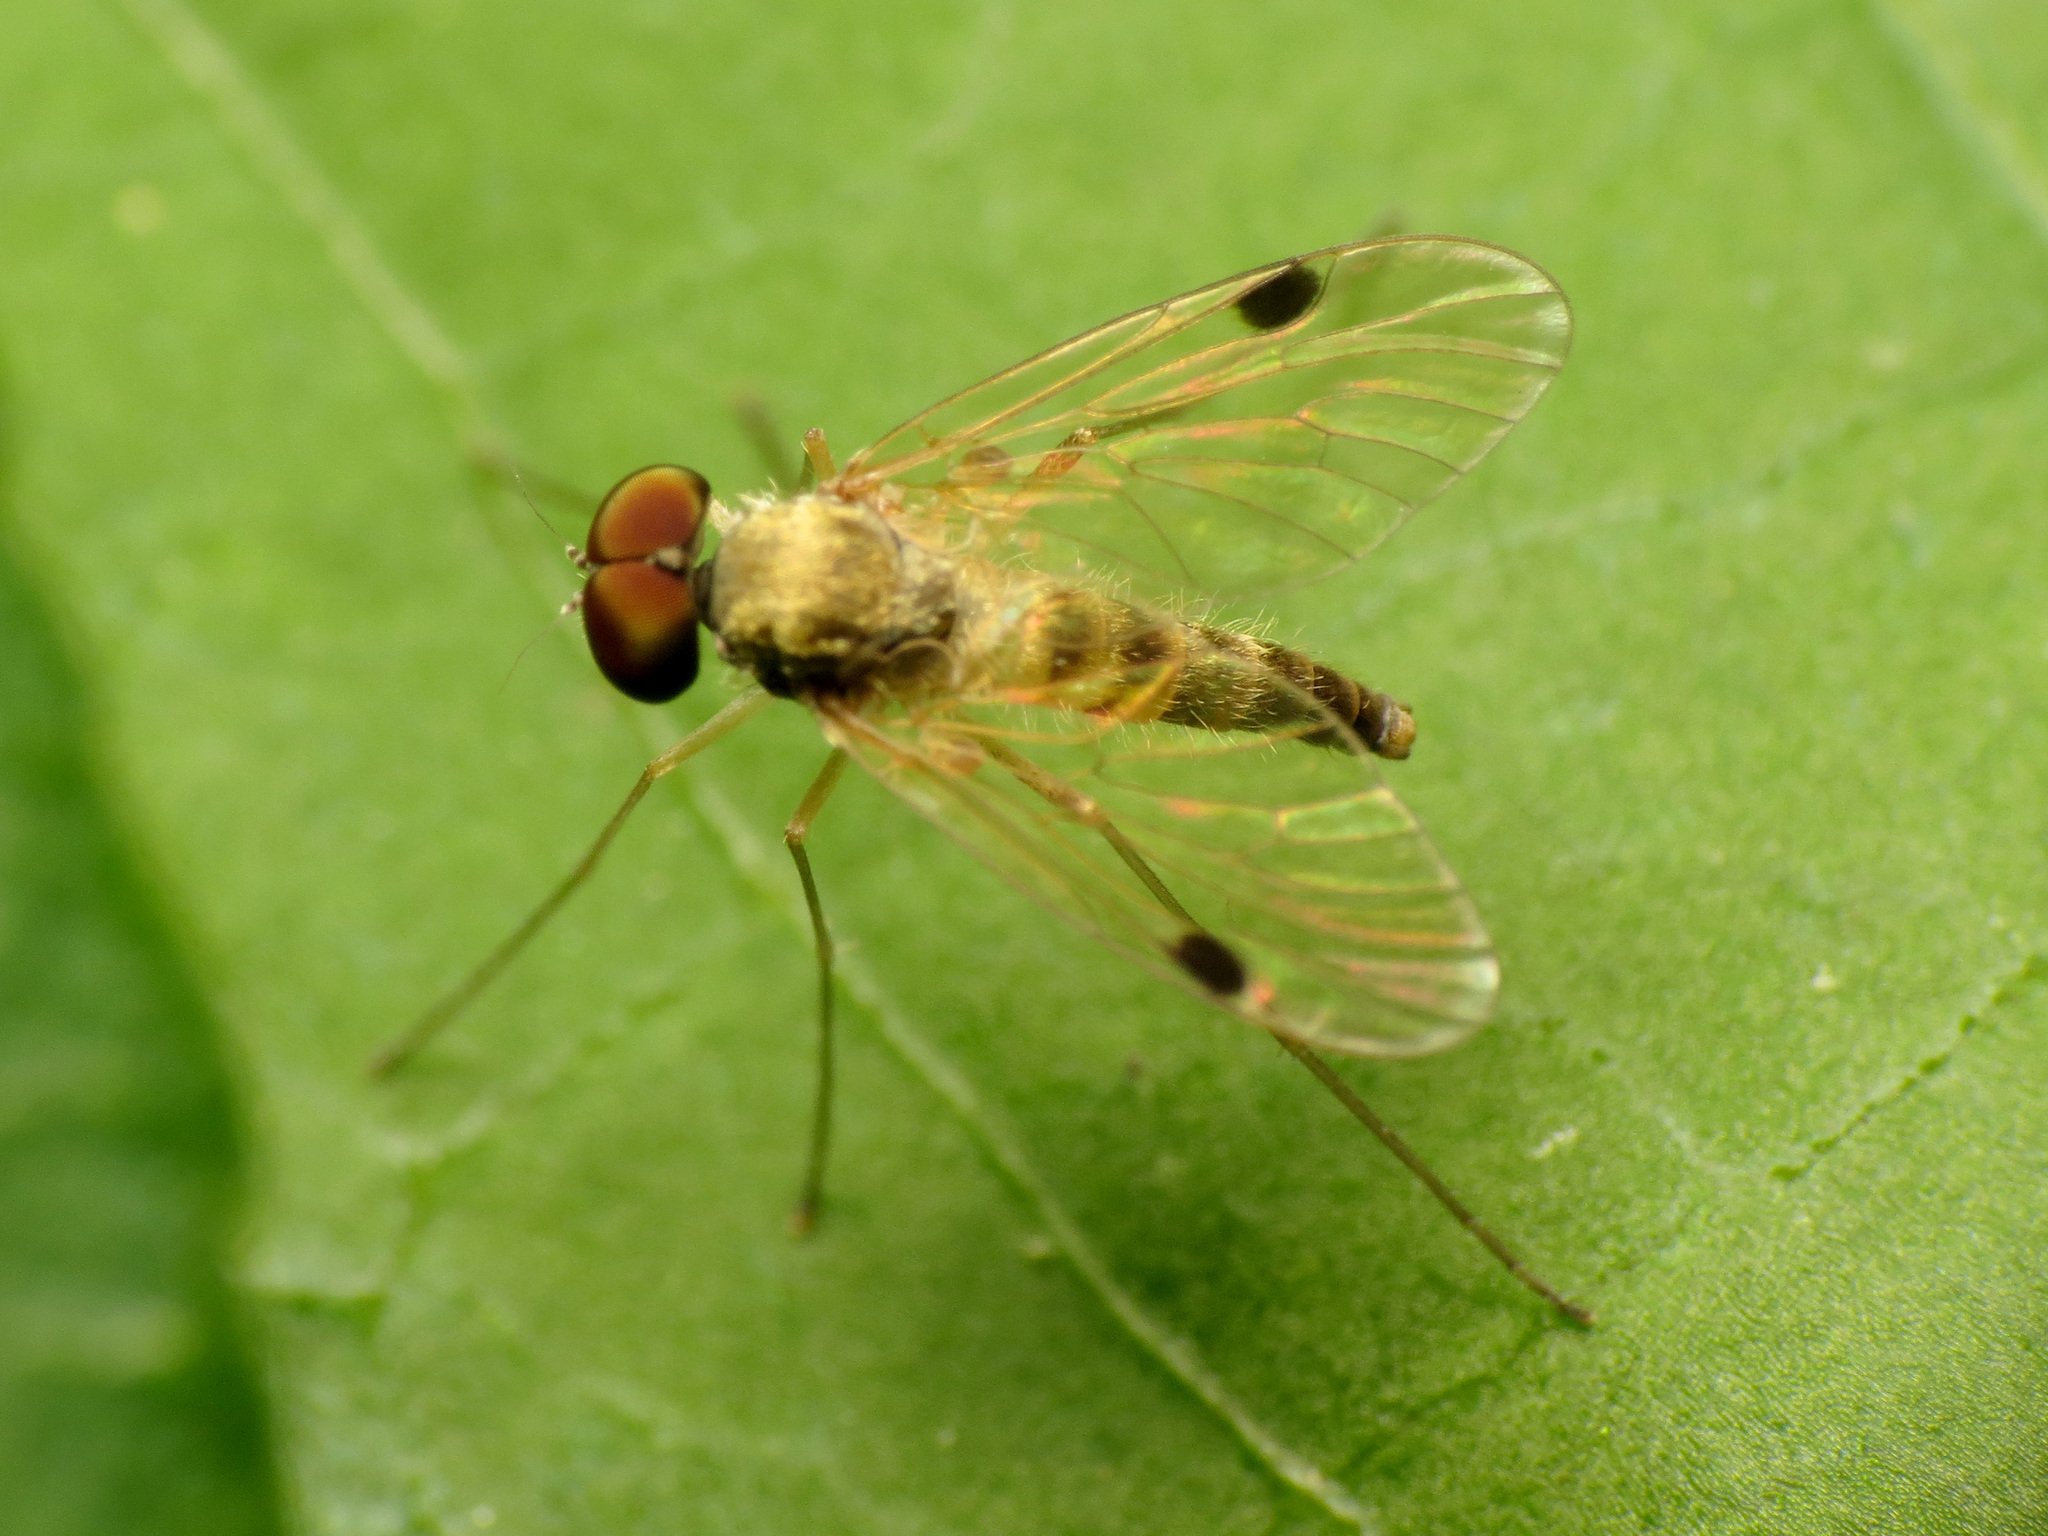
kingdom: Animalia
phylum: Arthropoda
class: Insecta
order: Diptera
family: Rhagionidae
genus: Chrysopilus
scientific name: Chrysopilus modestus
